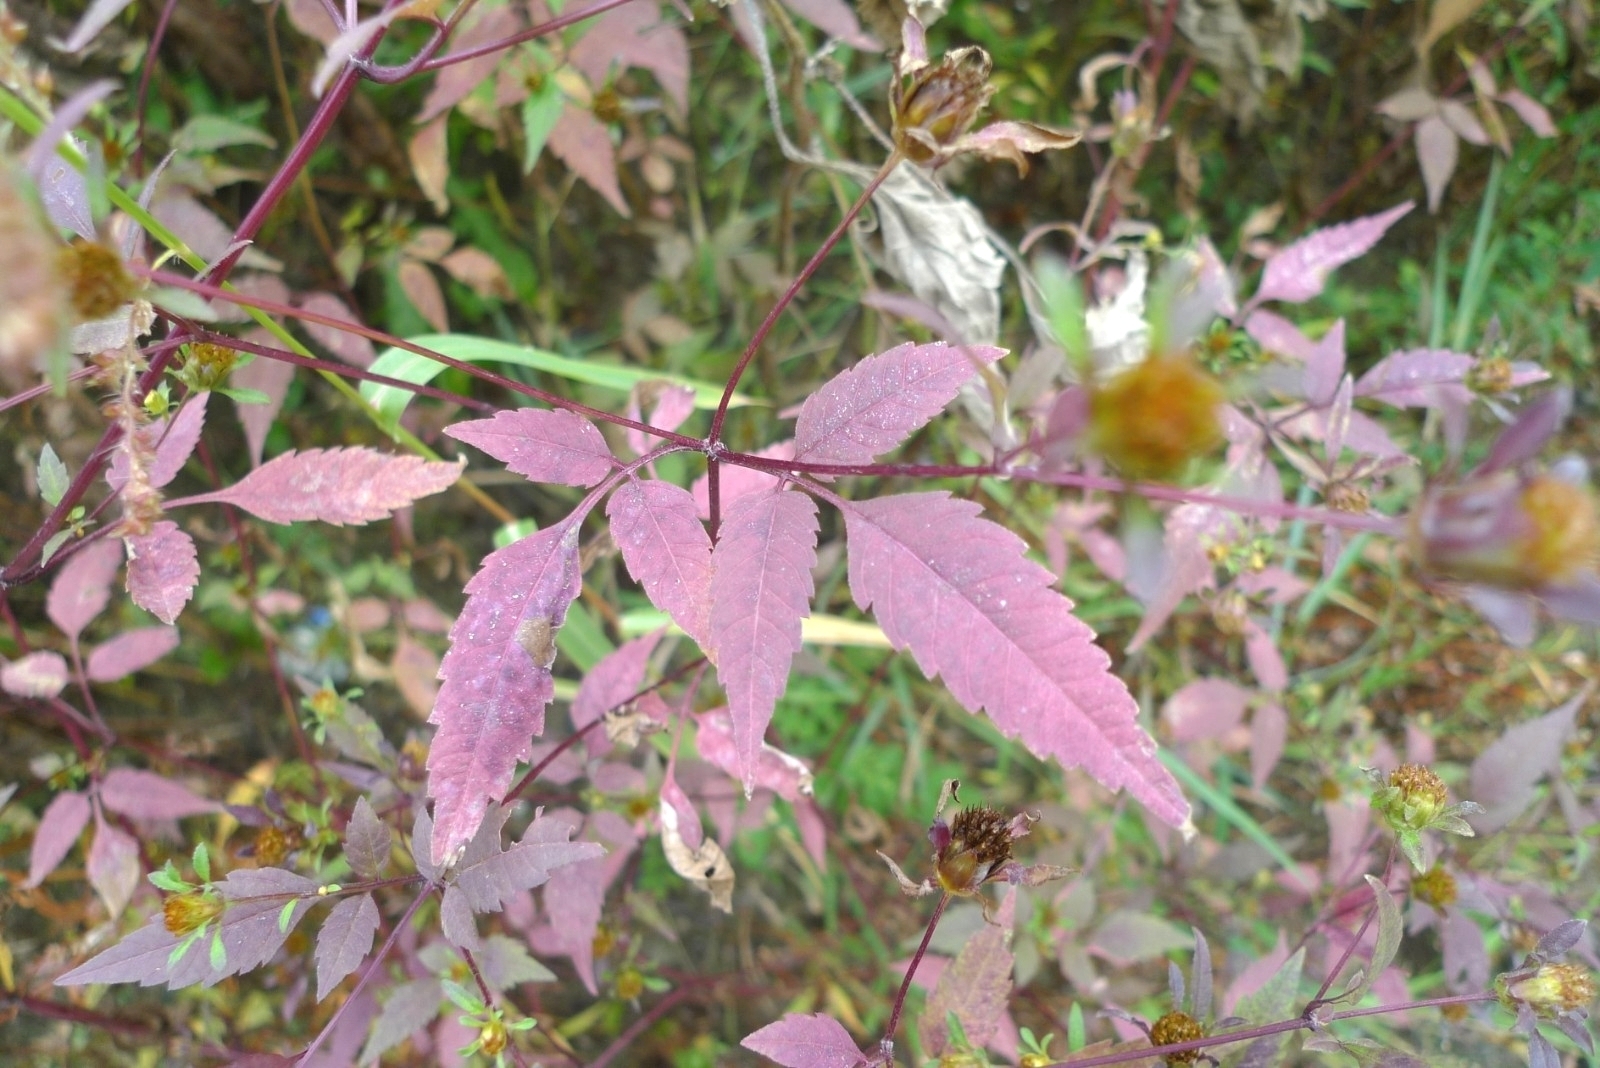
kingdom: Plantae
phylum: Tracheophyta
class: Magnoliopsida
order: Asterales
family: Asteraceae
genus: Bidens
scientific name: Bidens frondosa
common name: Beggarticks
